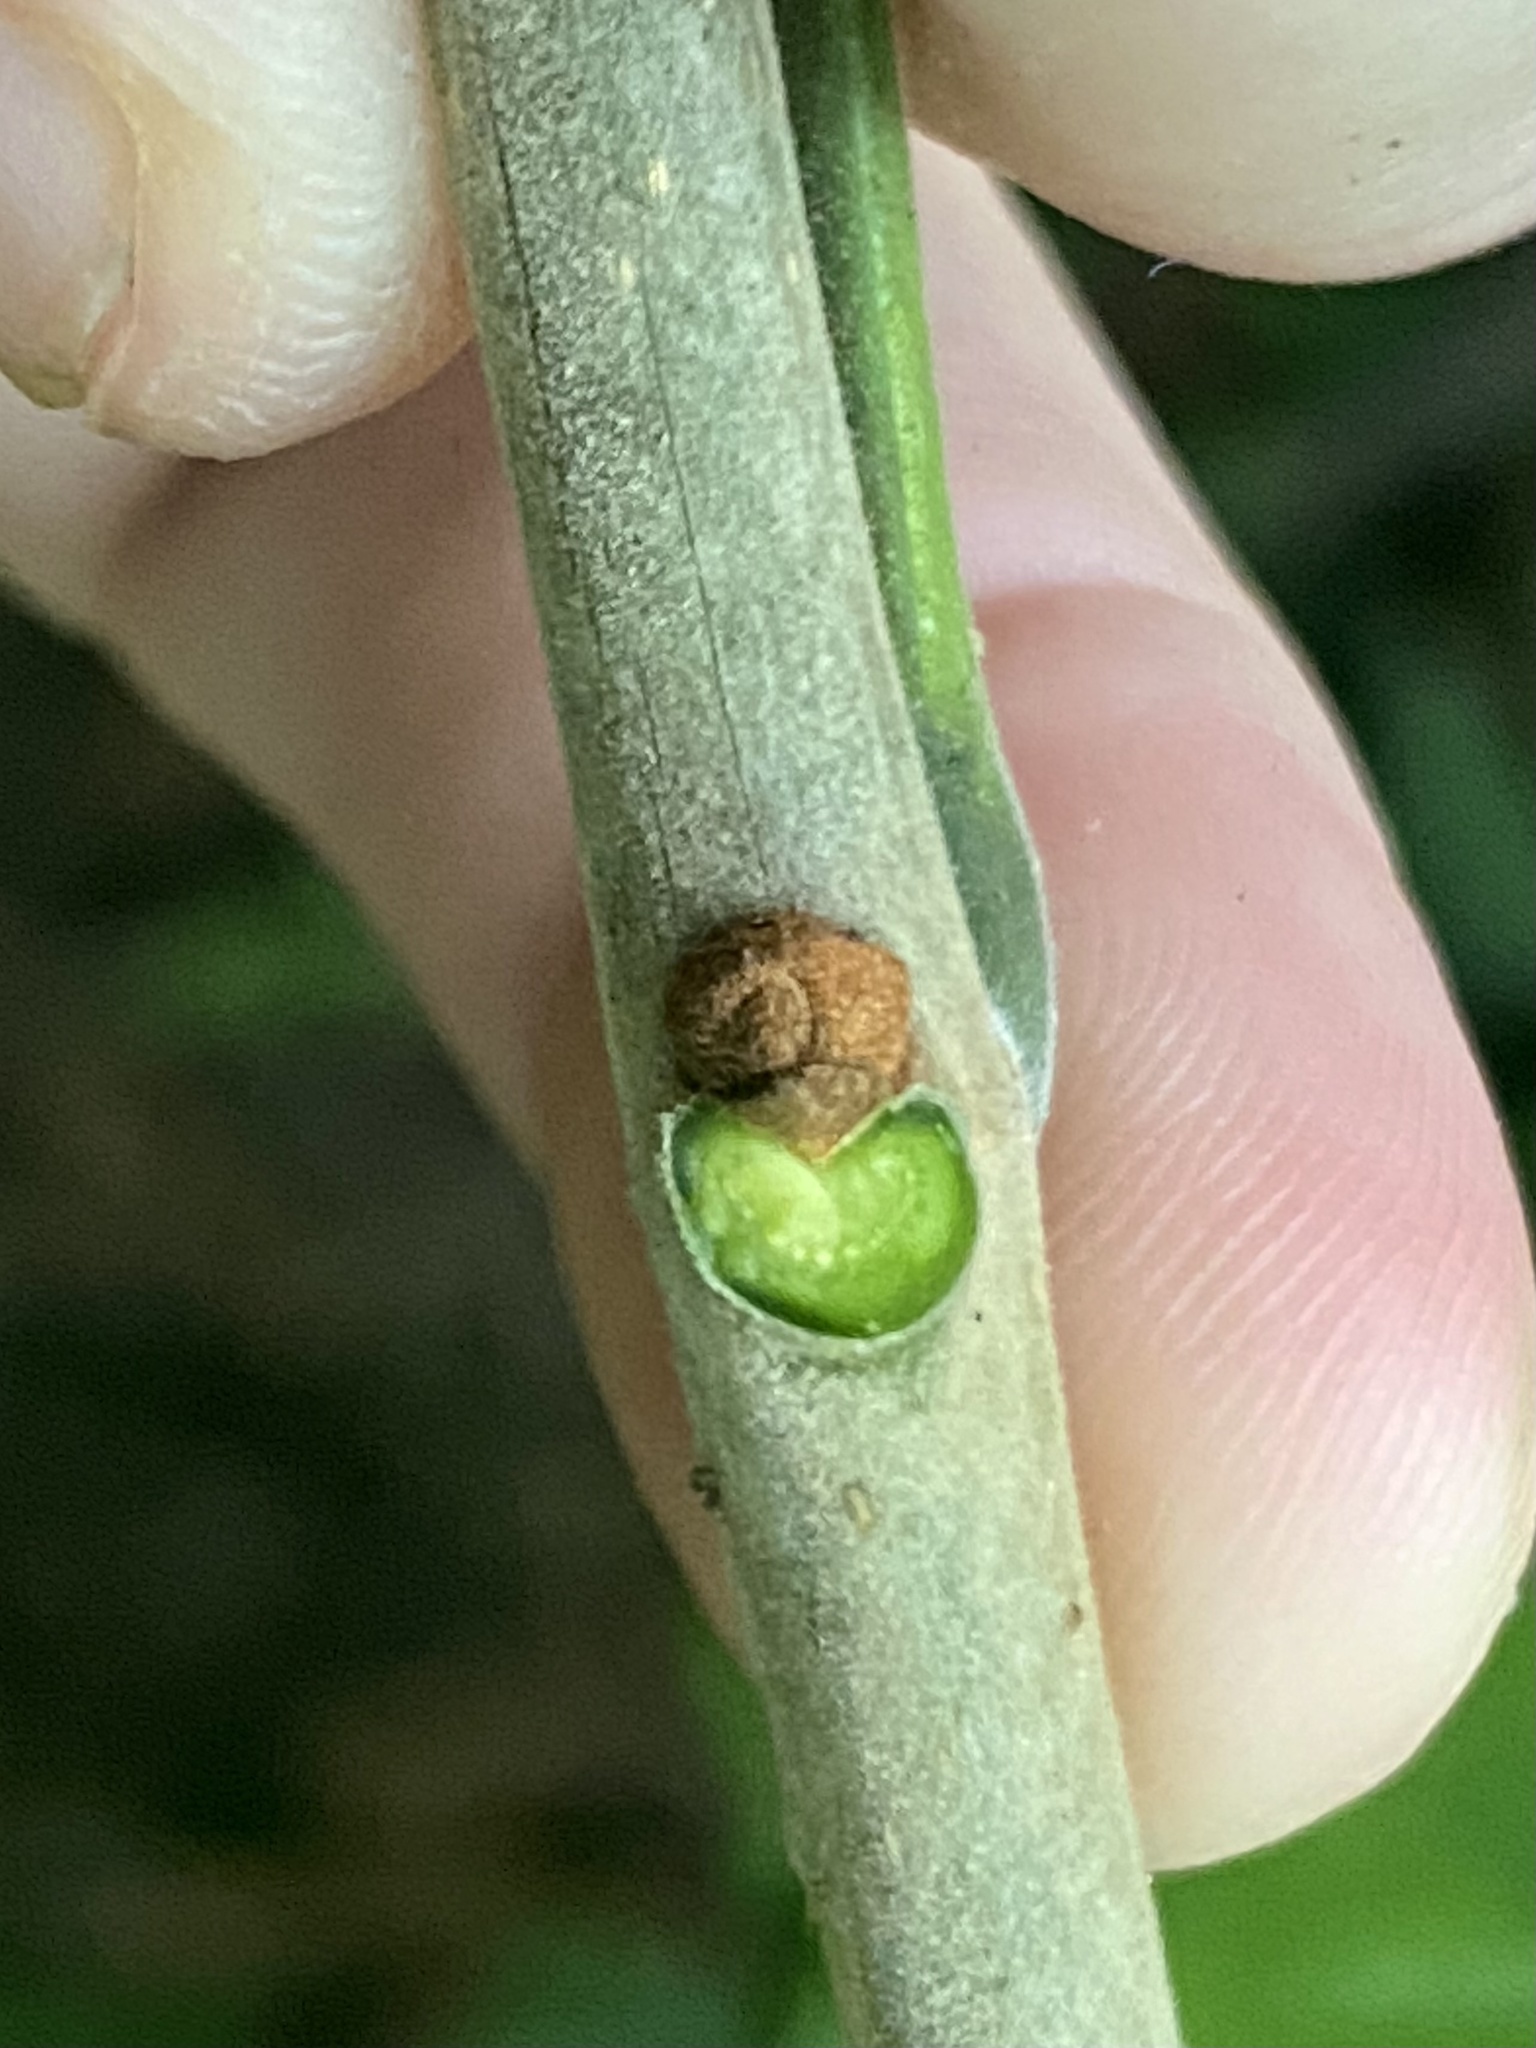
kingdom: Plantae
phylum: Tracheophyta
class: Magnoliopsida
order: Lamiales
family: Oleaceae
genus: Fraxinus
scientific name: Fraxinus americana
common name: White ash
